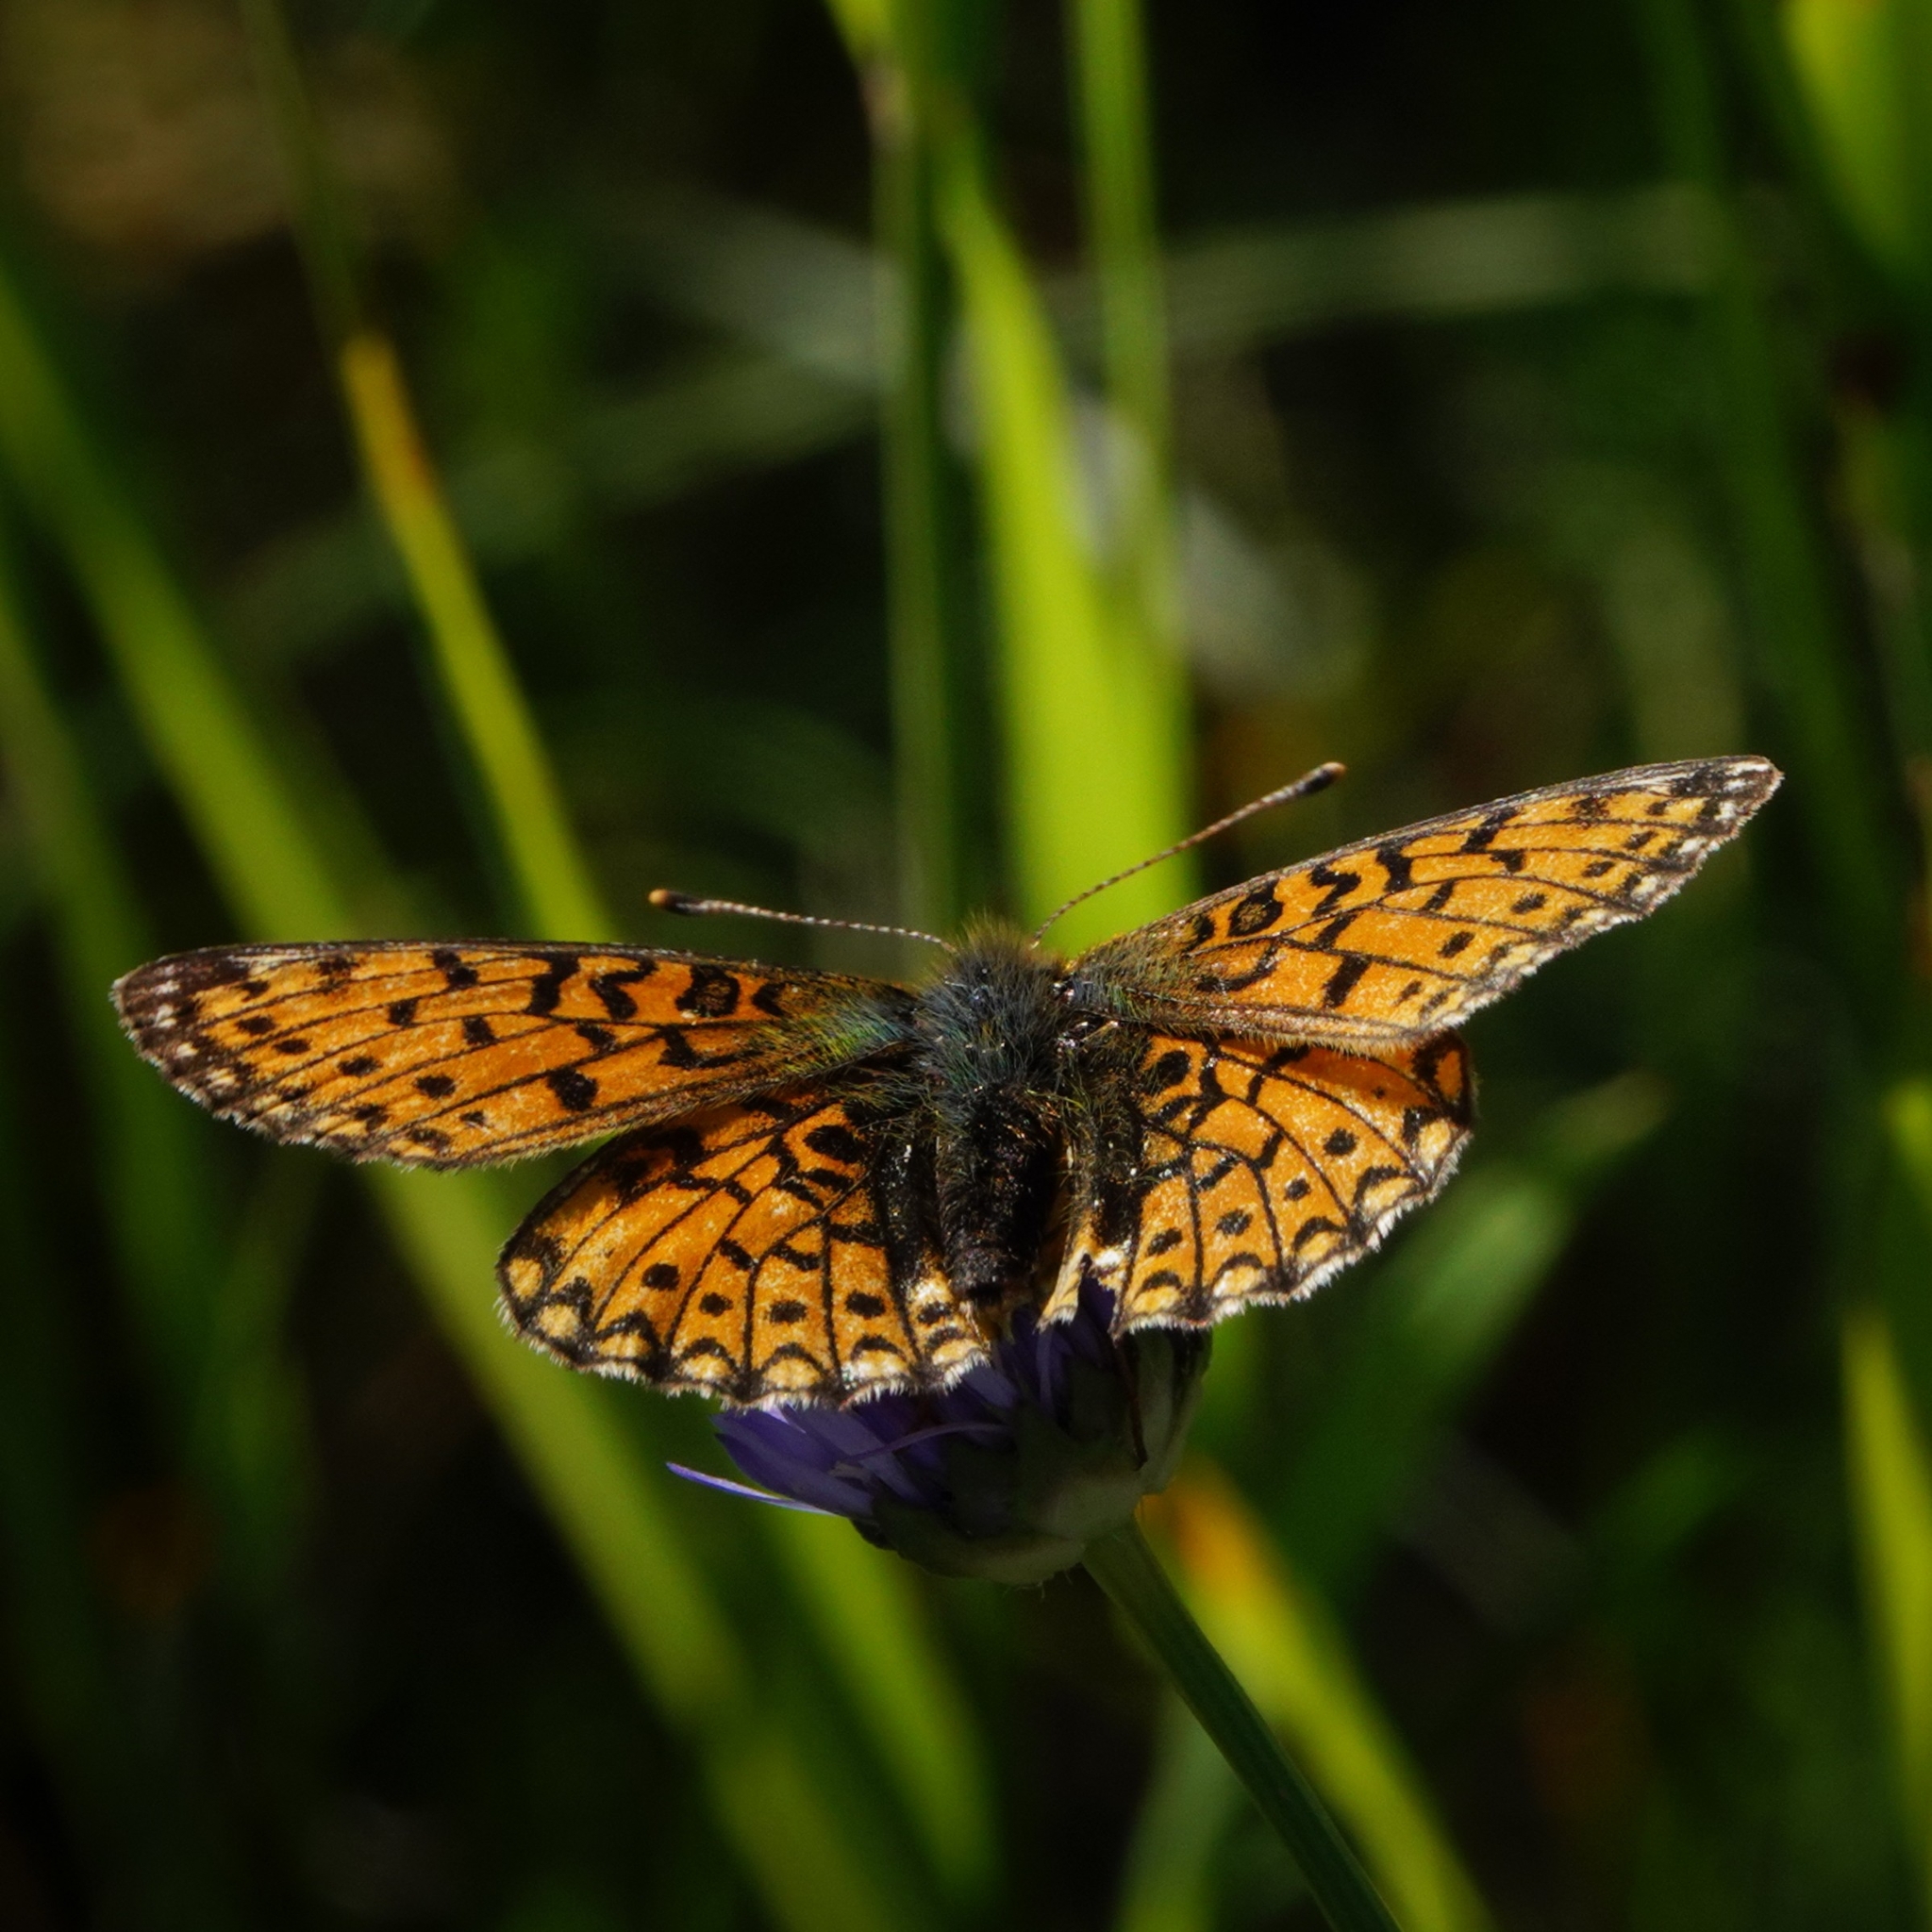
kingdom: Animalia
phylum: Arthropoda
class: Insecta
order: Lepidoptera
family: Nymphalidae
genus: Boloria
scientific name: Boloria selene
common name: Small pearl-bordered fritillary
